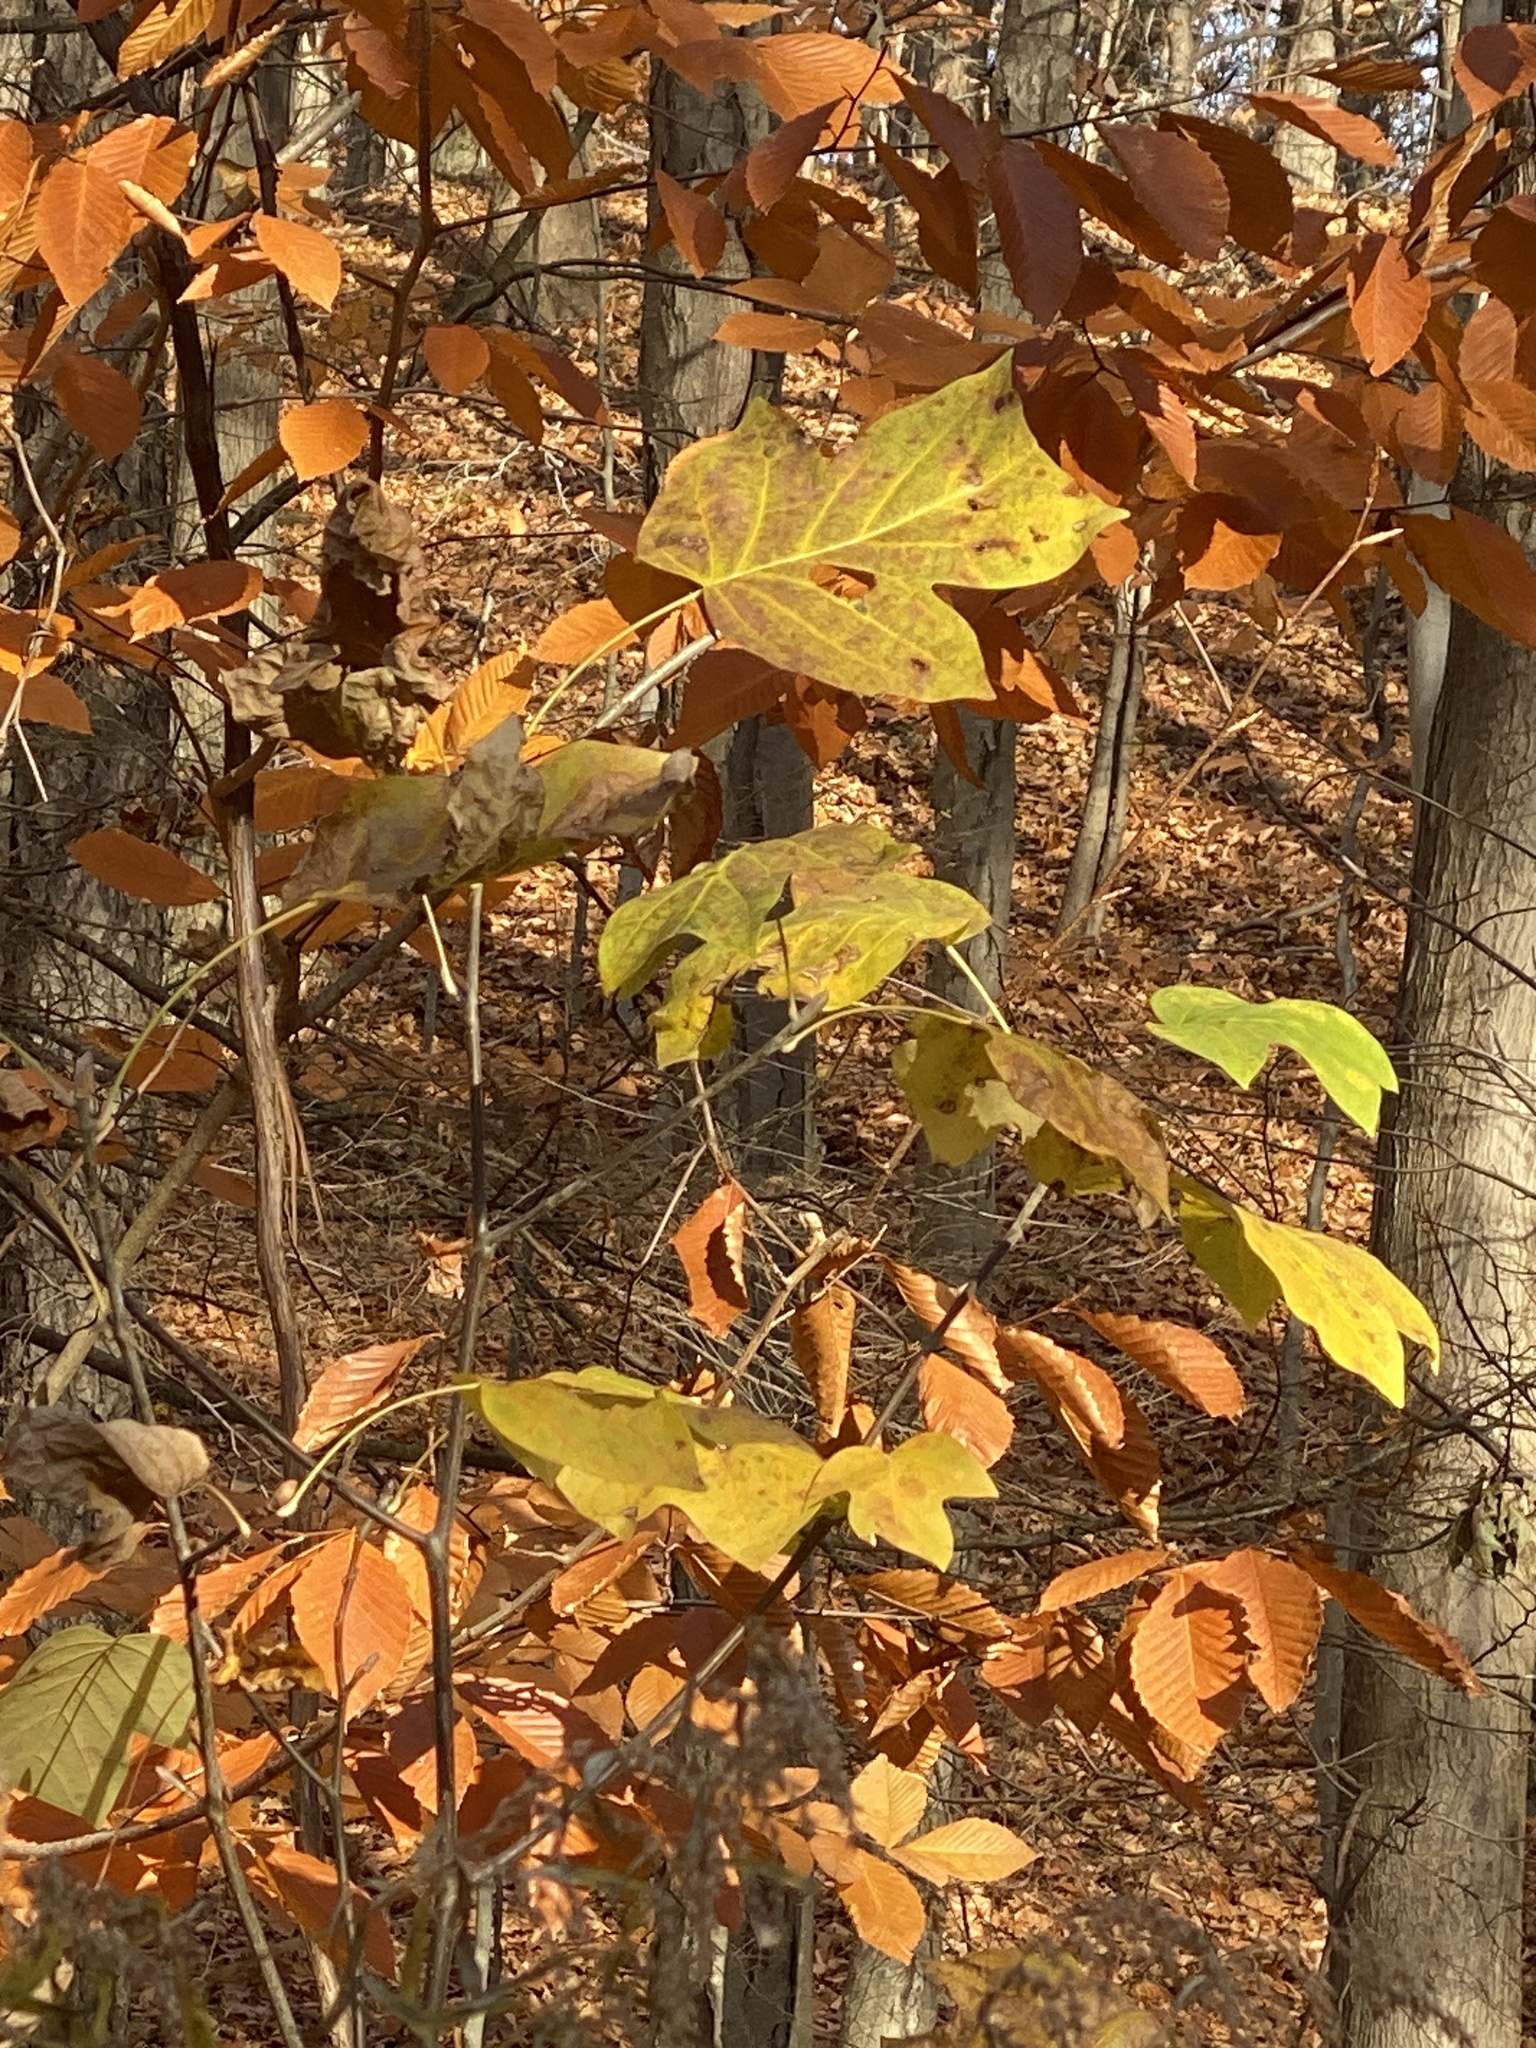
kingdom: Plantae
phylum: Tracheophyta
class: Magnoliopsida
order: Magnoliales
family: Magnoliaceae
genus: Liriodendron
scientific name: Liriodendron tulipifera
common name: Tulip tree
